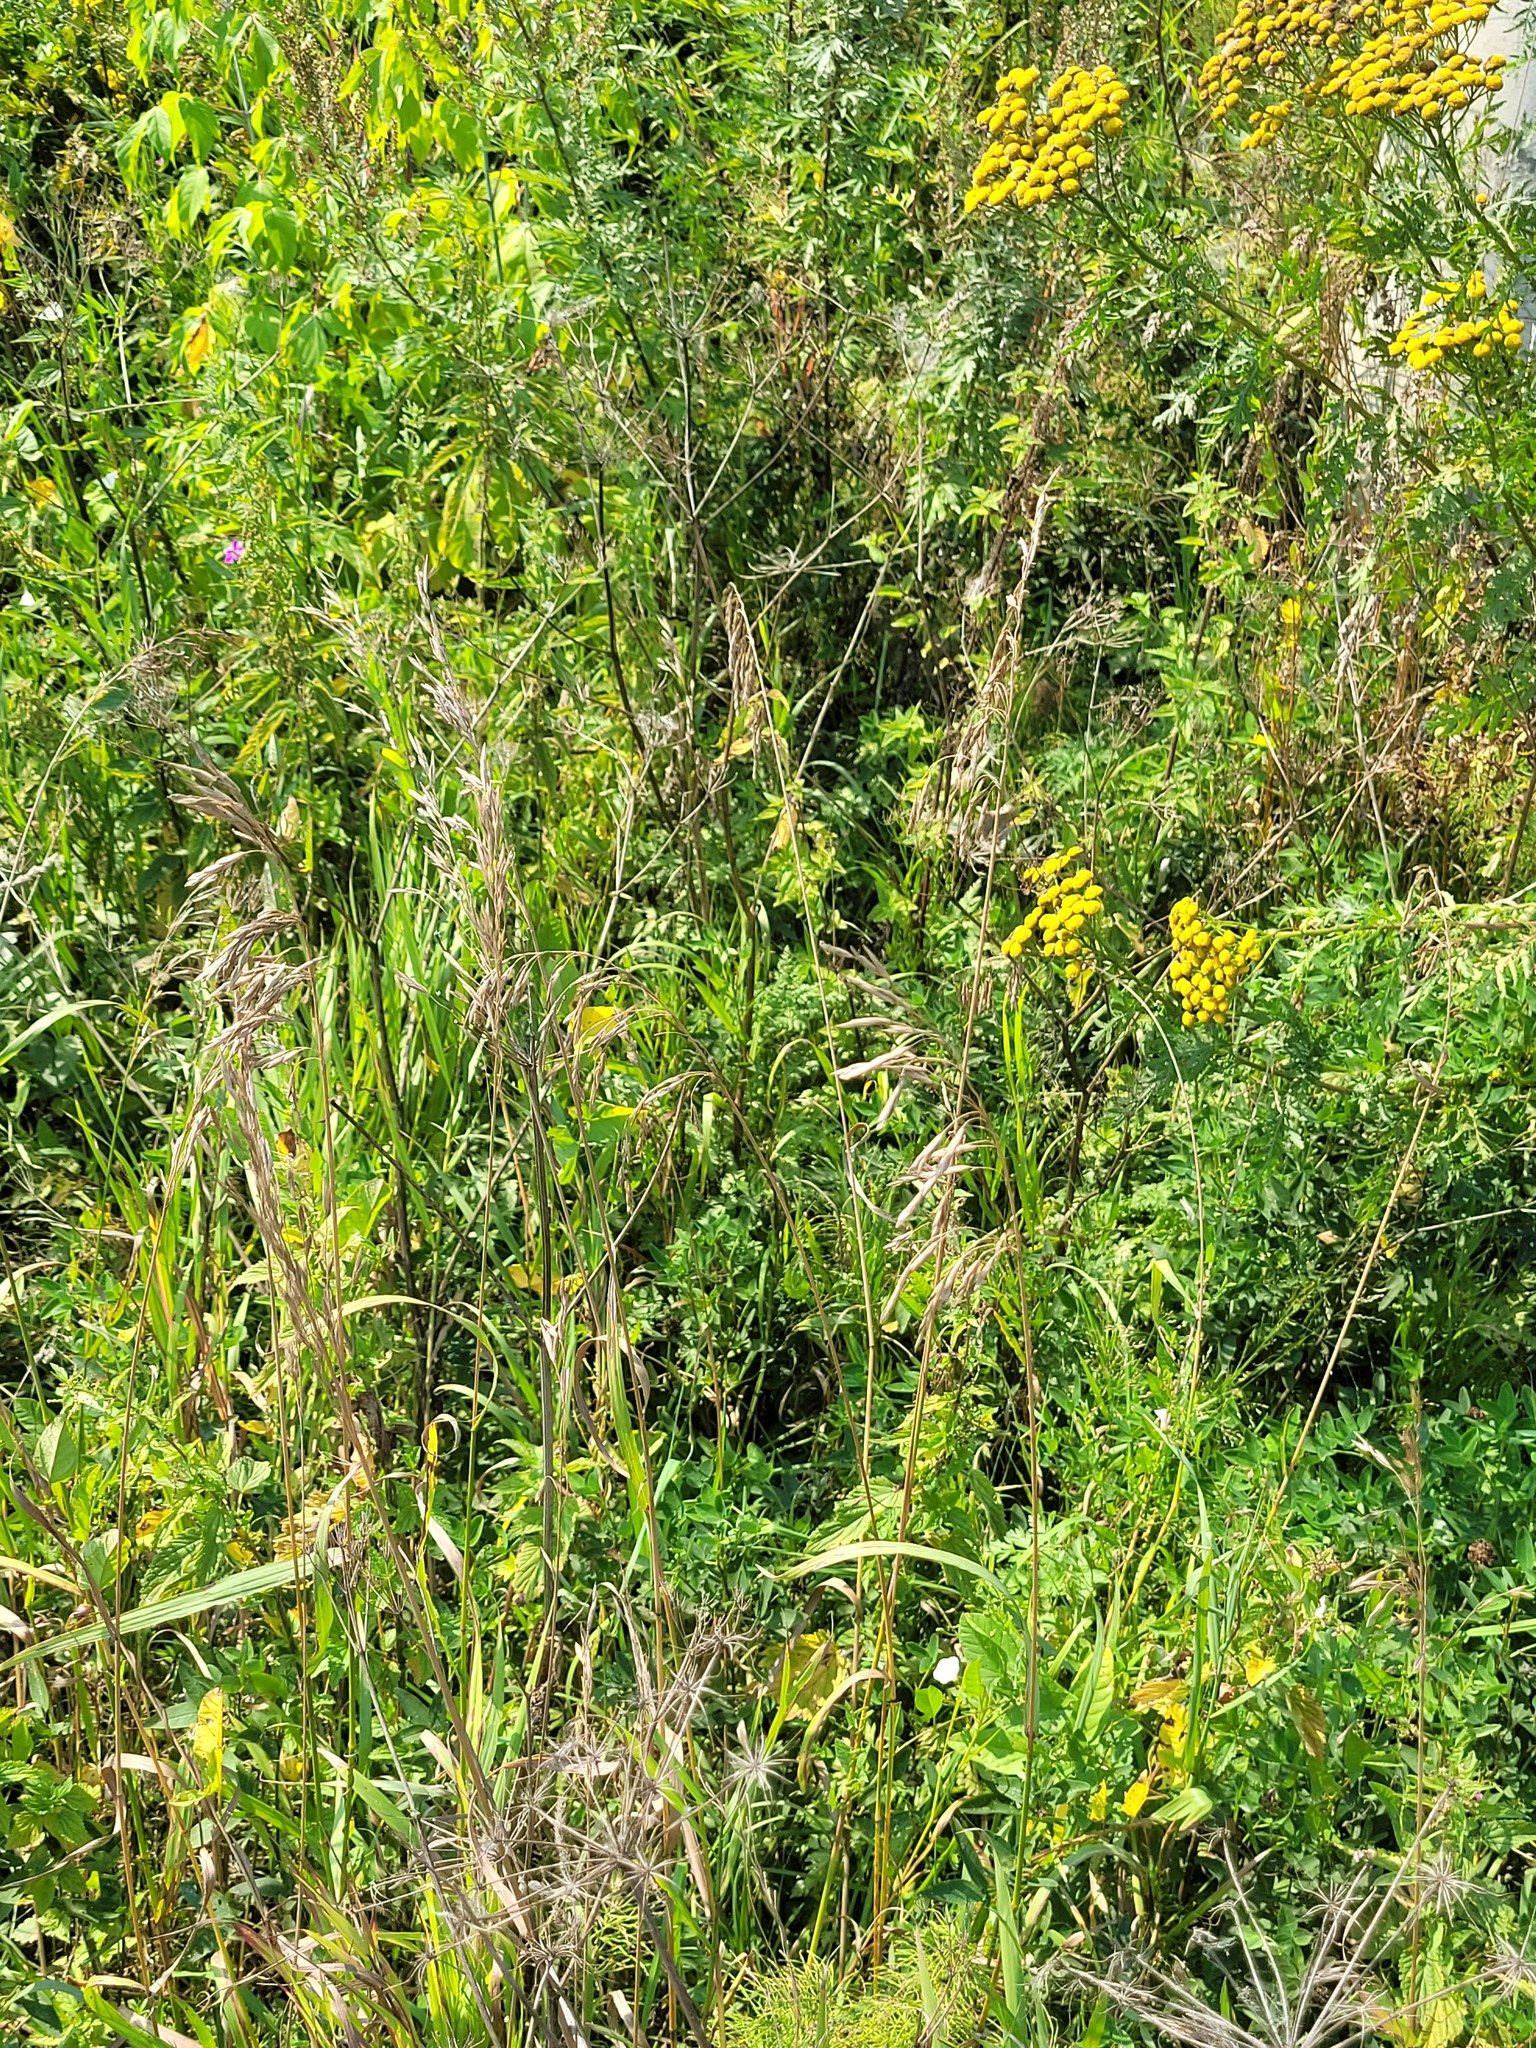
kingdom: Plantae
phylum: Tracheophyta
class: Liliopsida
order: Poales
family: Poaceae
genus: Bromus
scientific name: Bromus inermis
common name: Smooth brome
